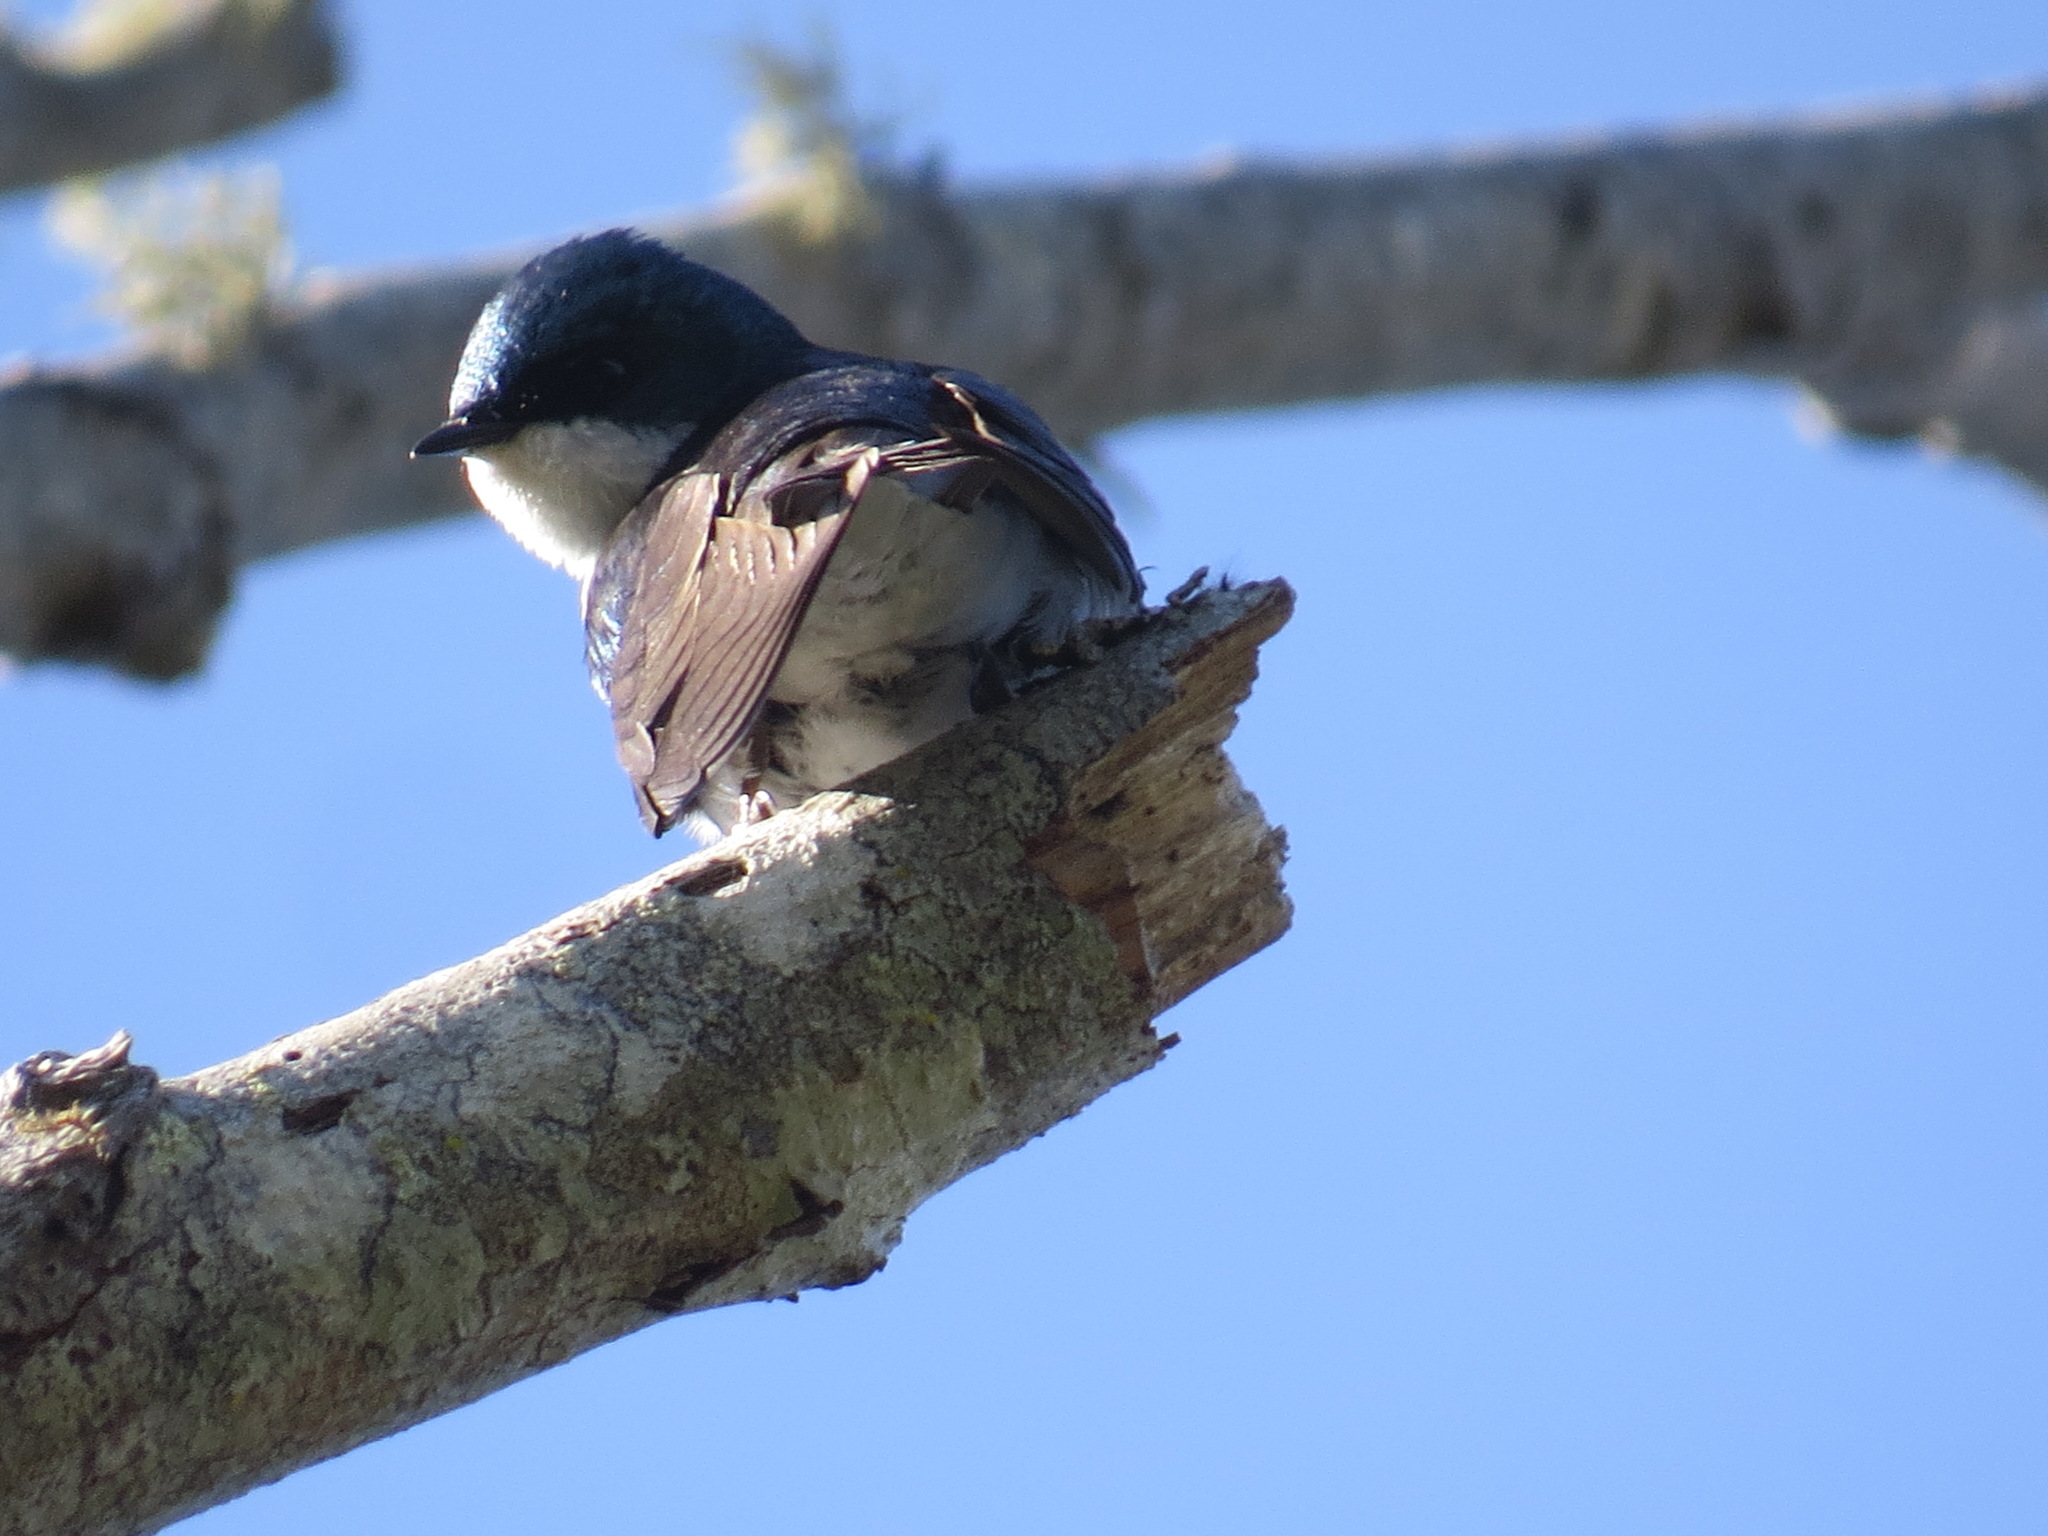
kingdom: Animalia
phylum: Chordata
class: Aves
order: Passeriformes
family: Hirundinidae
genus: Tachycineta
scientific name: Tachycineta bicolor
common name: Tree swallow
